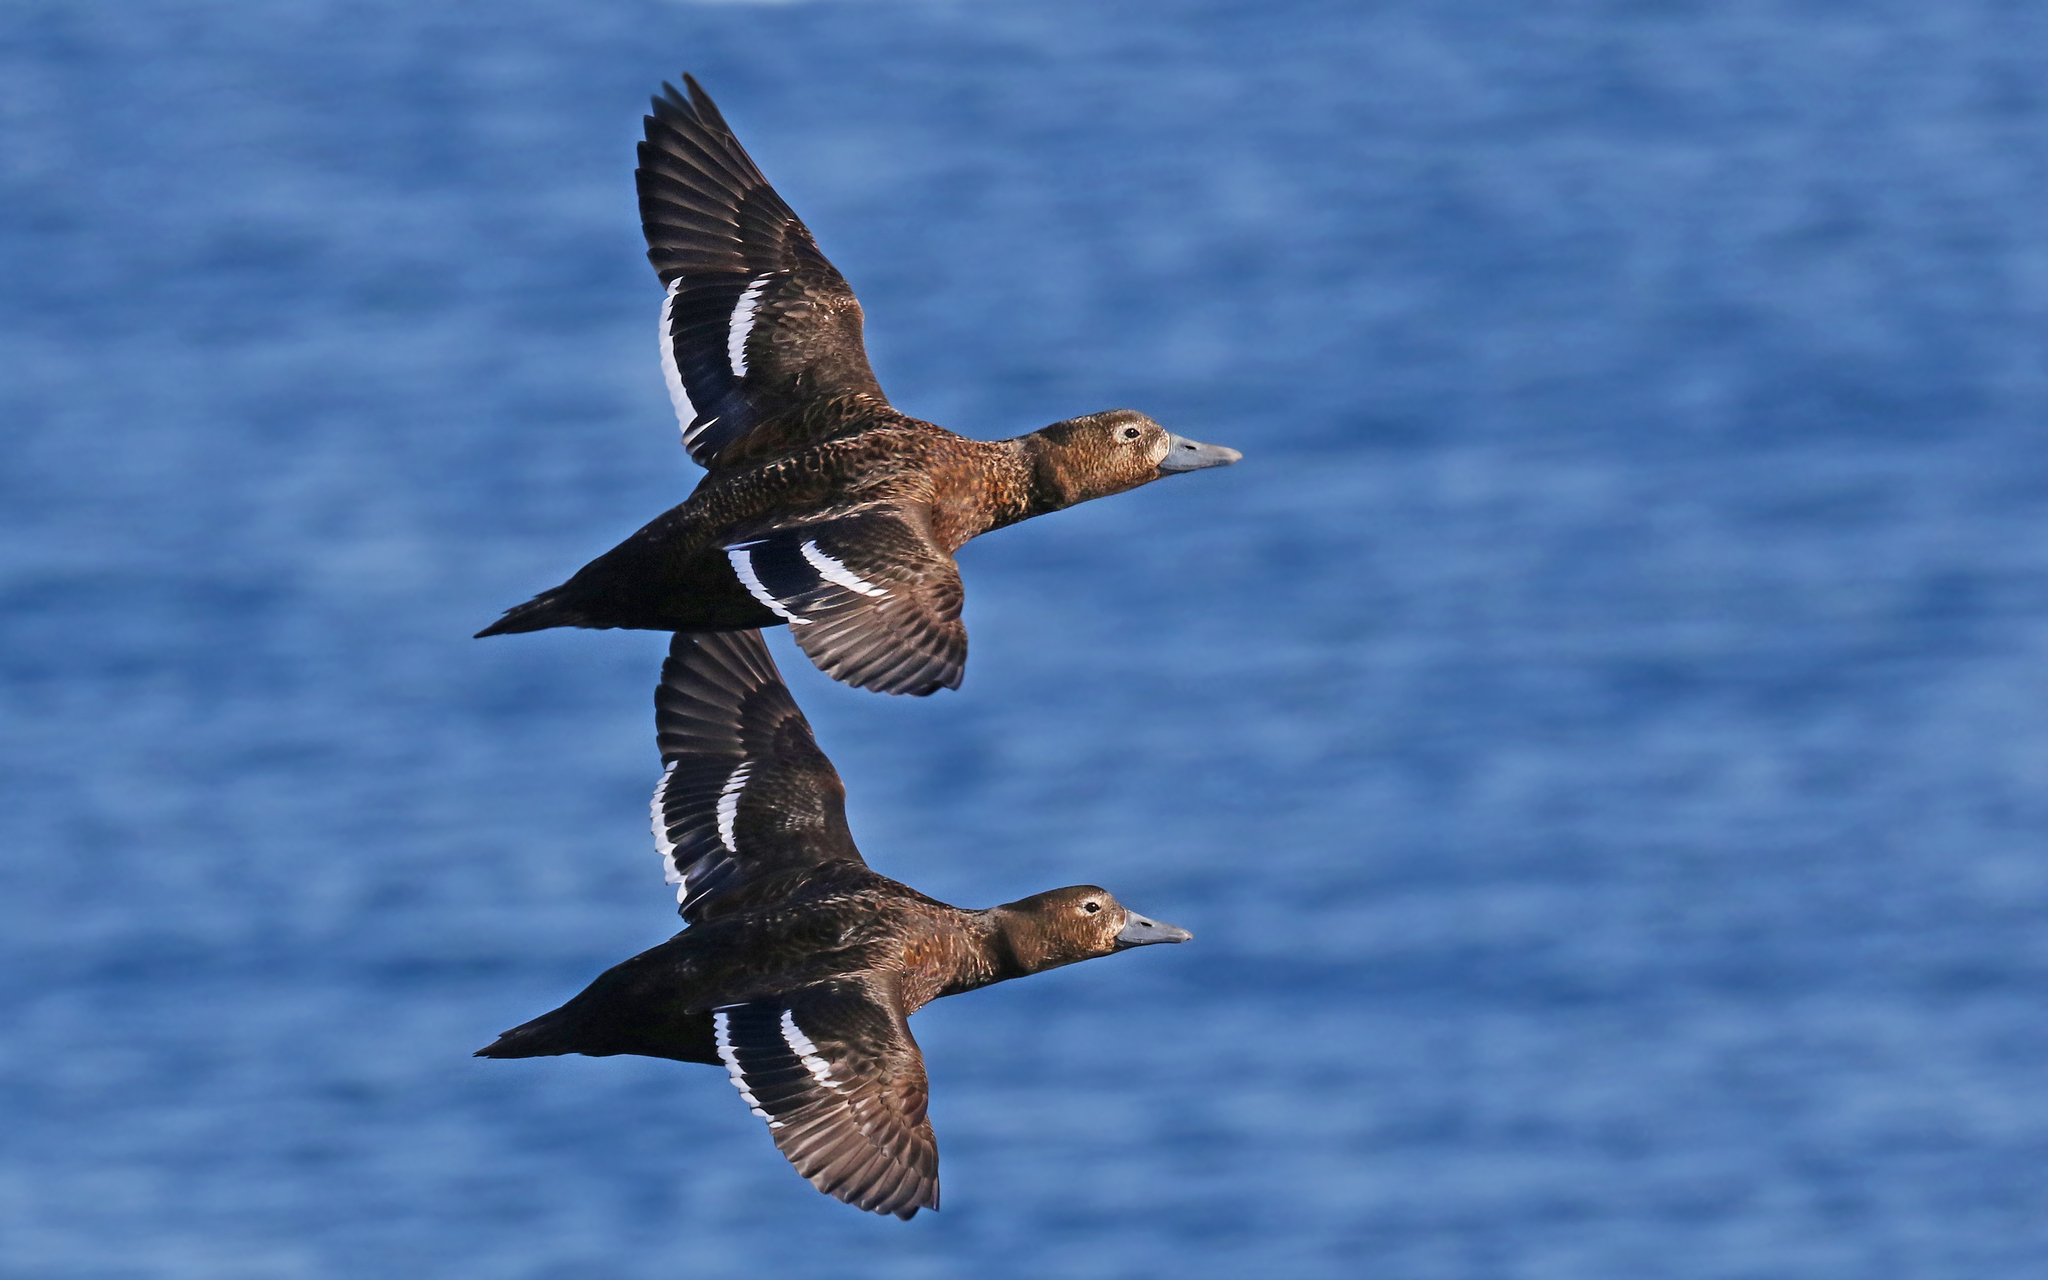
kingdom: Animalia
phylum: Chordata
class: Aves
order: Anseriformes
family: Anatidae
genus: Polysticta
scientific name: Polysticta stelleri
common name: Steller's eider
